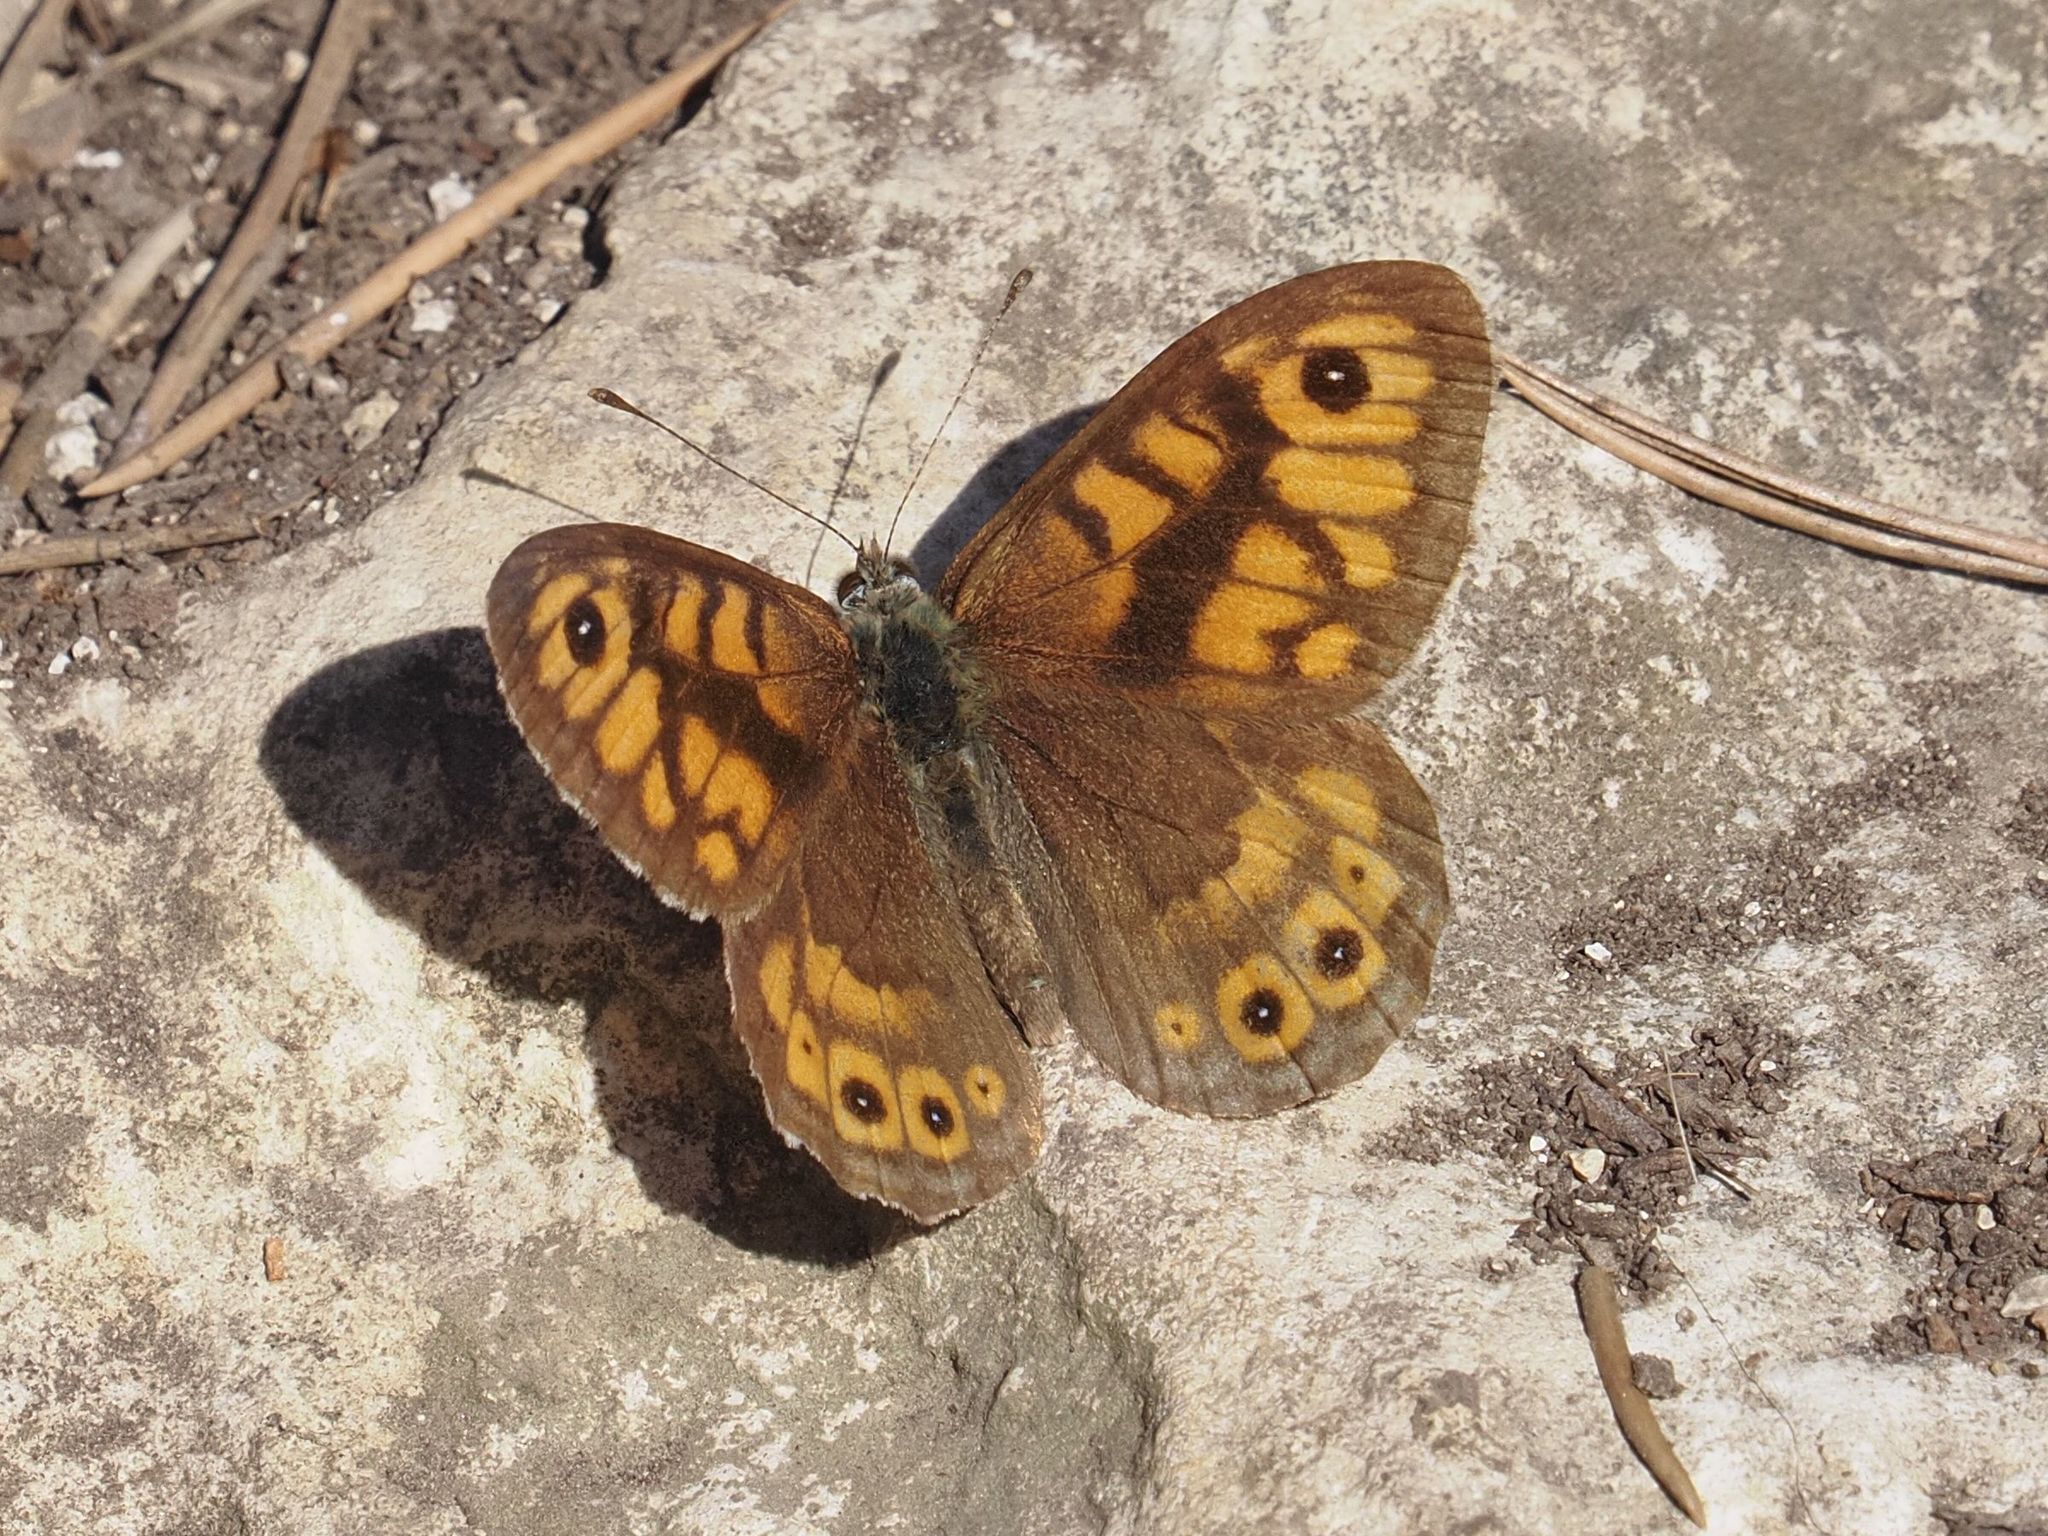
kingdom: Animalia
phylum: Arthropoda
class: Insecta
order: Lepidoptera
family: Nymphalidae
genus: Pararge
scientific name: Pararge Lasiommata megera
